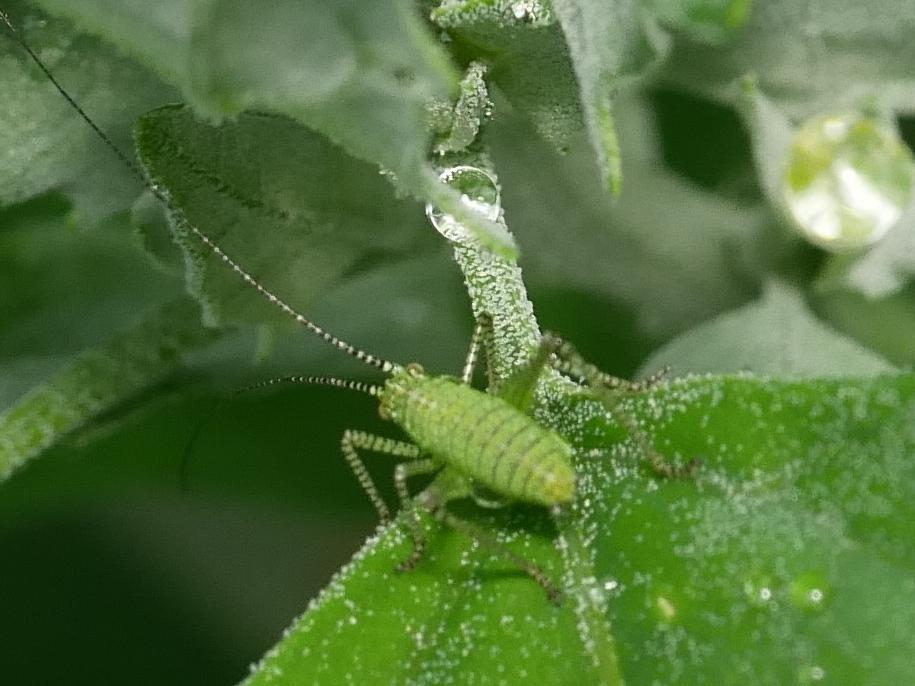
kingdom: Animalia
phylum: Arthropoda
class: Insecta
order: Orthoptera
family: Tettigoniidae
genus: Leptophyes
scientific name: Leptophyes punctatissima
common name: Speckled bush-cricket
